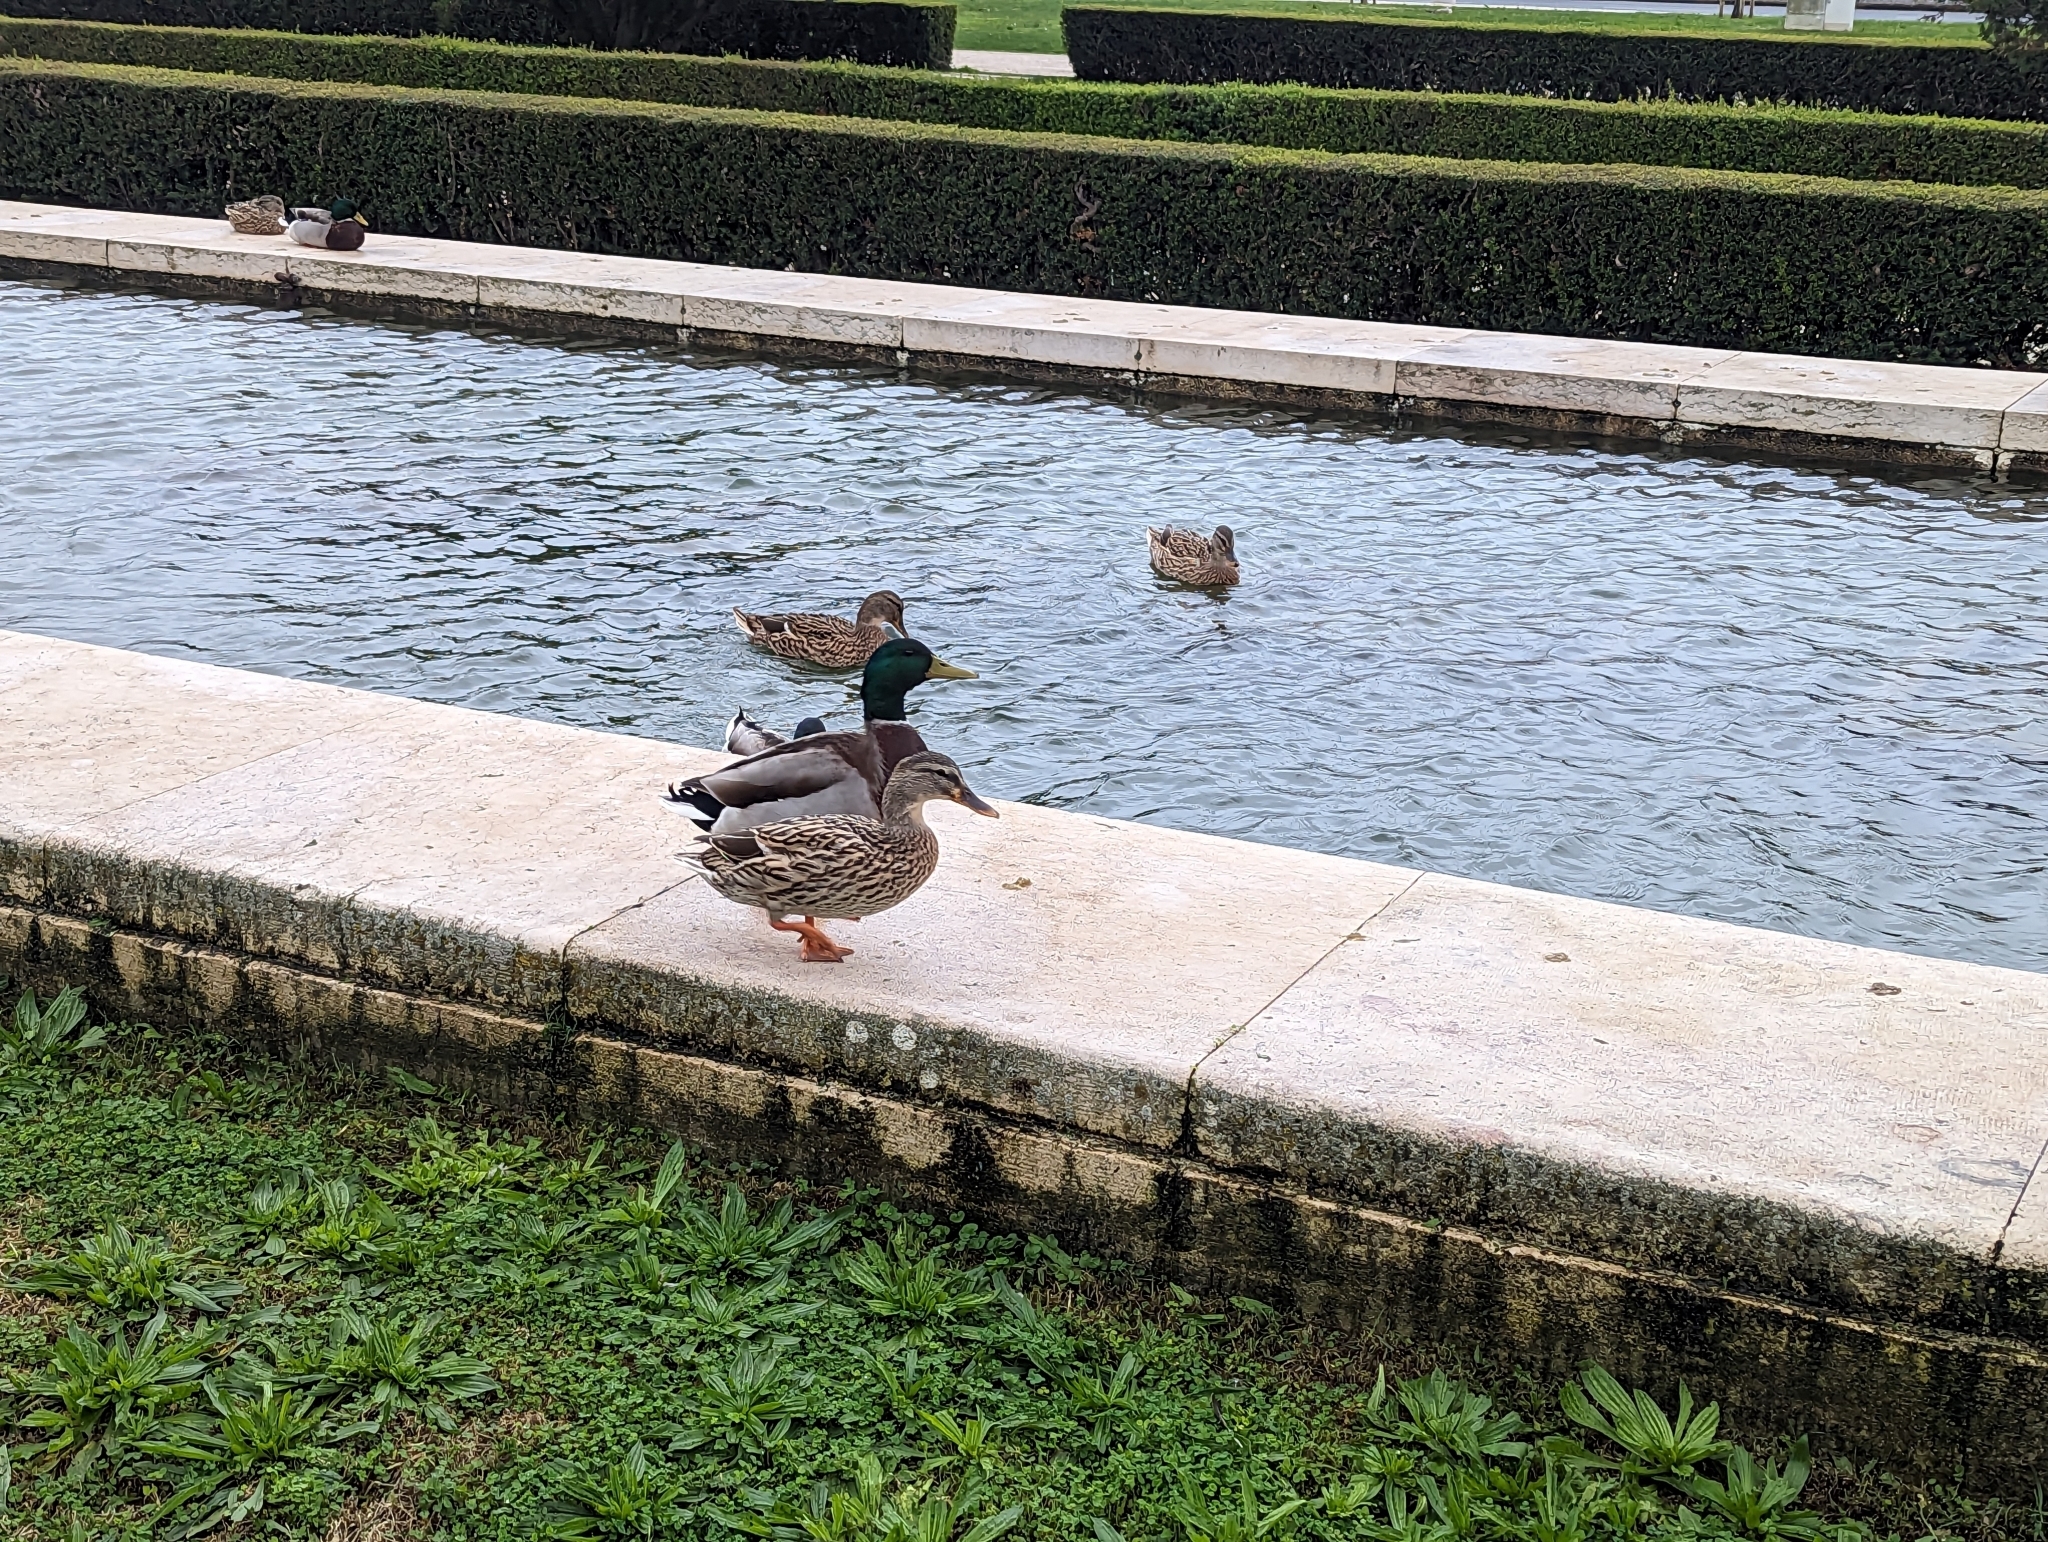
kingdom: Animalia
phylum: Chordata
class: Aves
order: Anseriformes
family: Anatidae
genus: Anas
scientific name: Anas platyrhynchos
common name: Mallard
